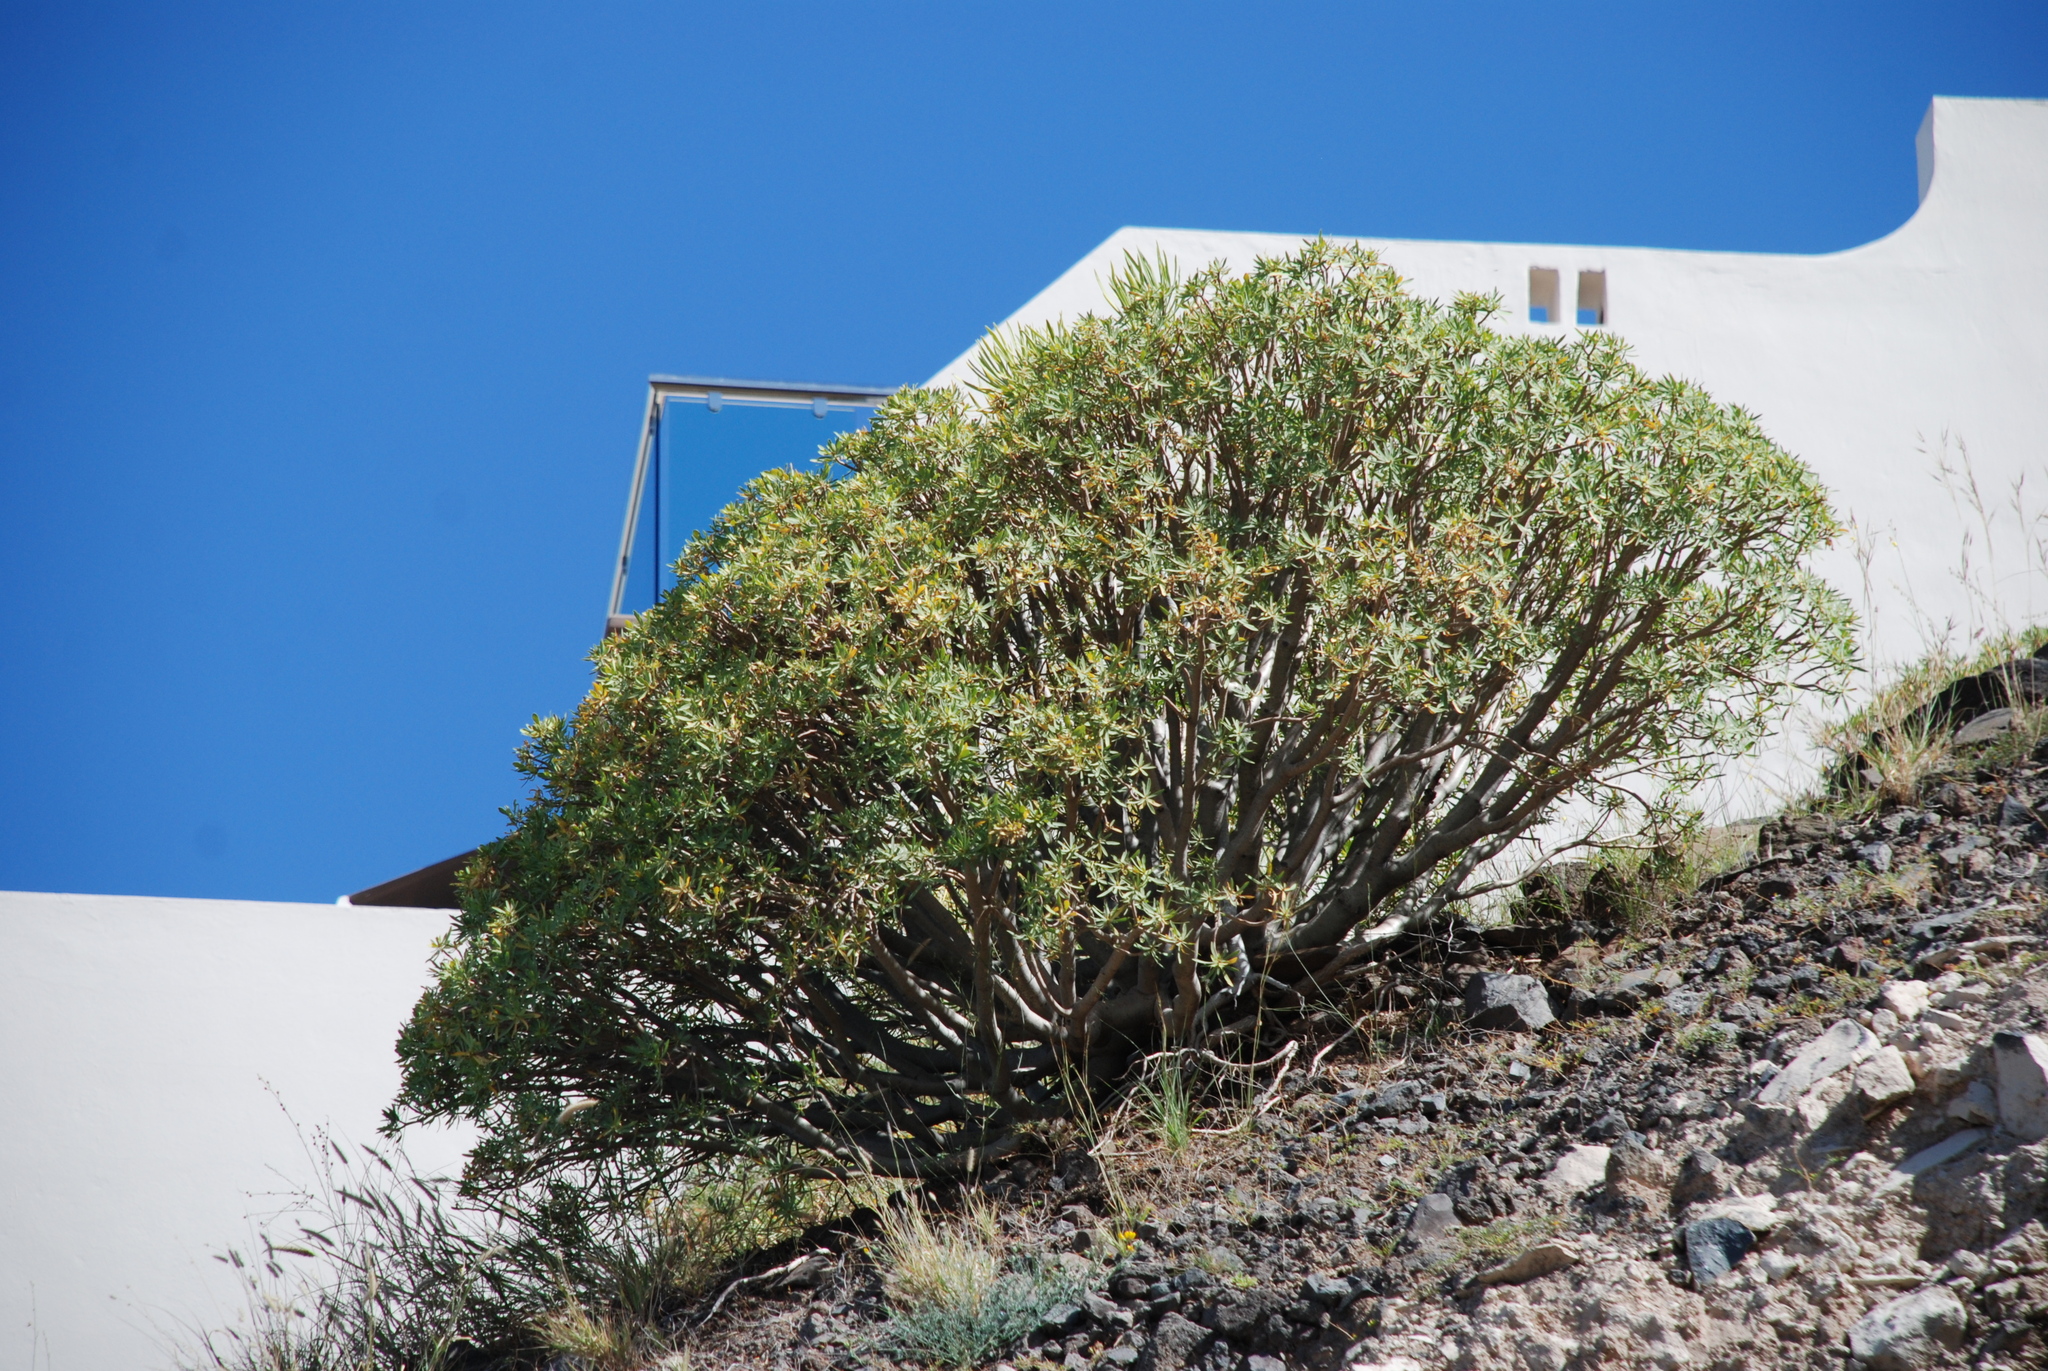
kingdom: Plantae
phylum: Tracheophyta
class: Magnoliopsida
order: Malpighiales
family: Euphorbiaceae
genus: Euphorbia
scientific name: Euphorbia lamarckii
